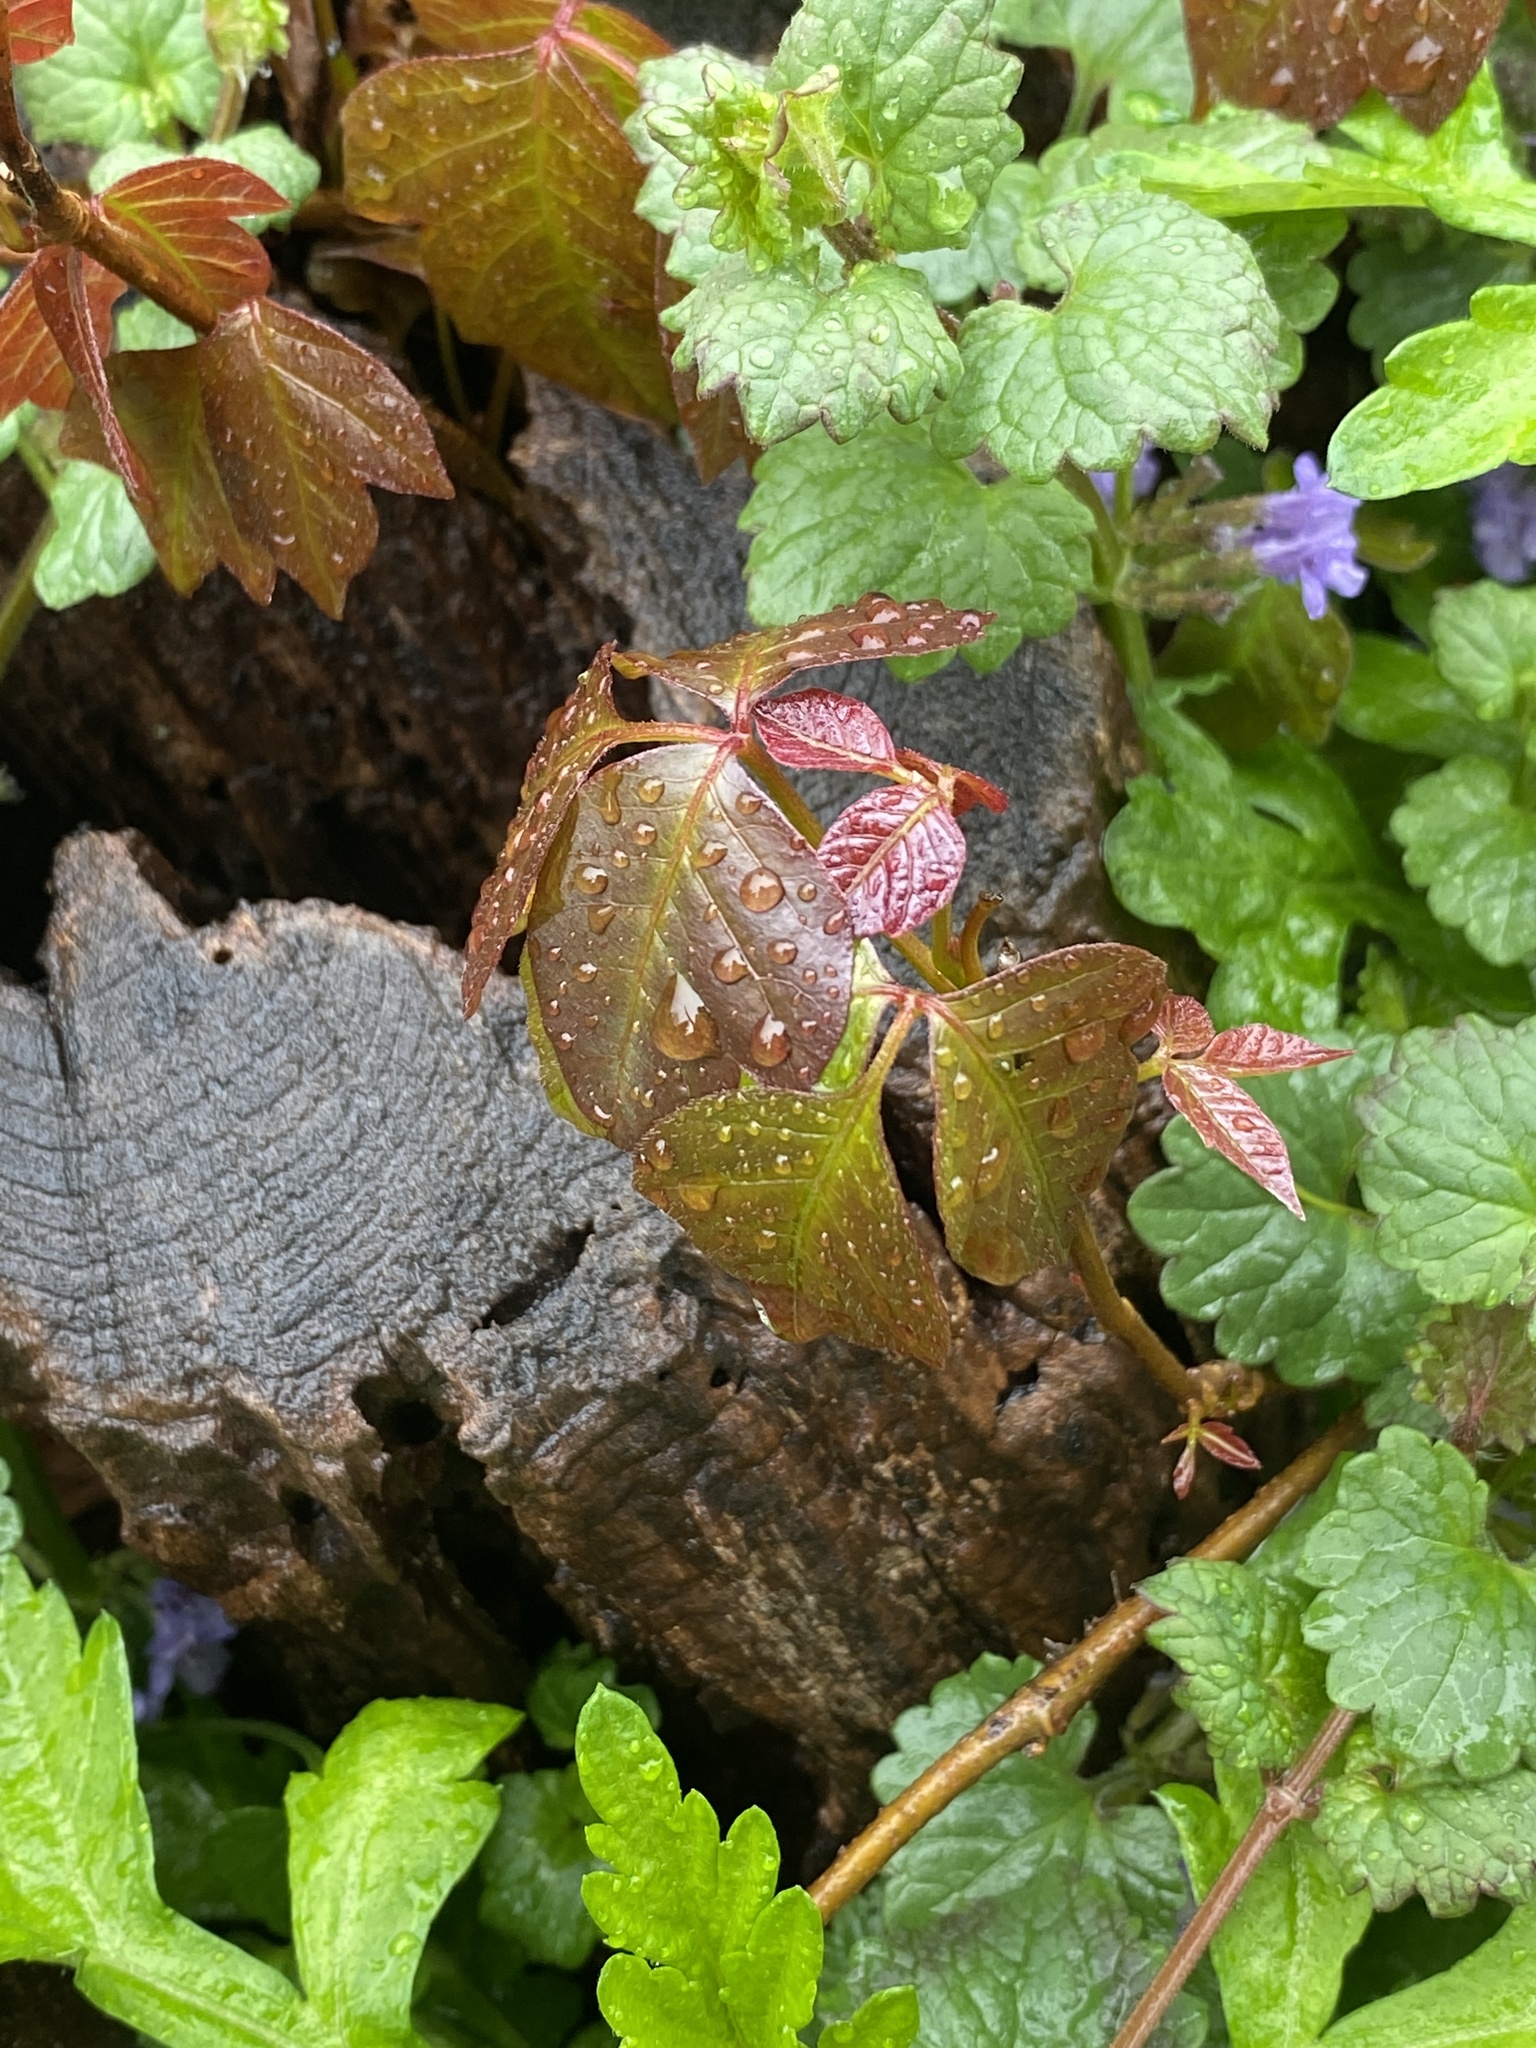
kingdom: Plantae
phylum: Tracheophyta
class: Magnoliopsida
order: Sapindales
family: Anacardiaceae
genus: Toxicodendron
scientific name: Toxicodendron radicans
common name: Poison ivy
